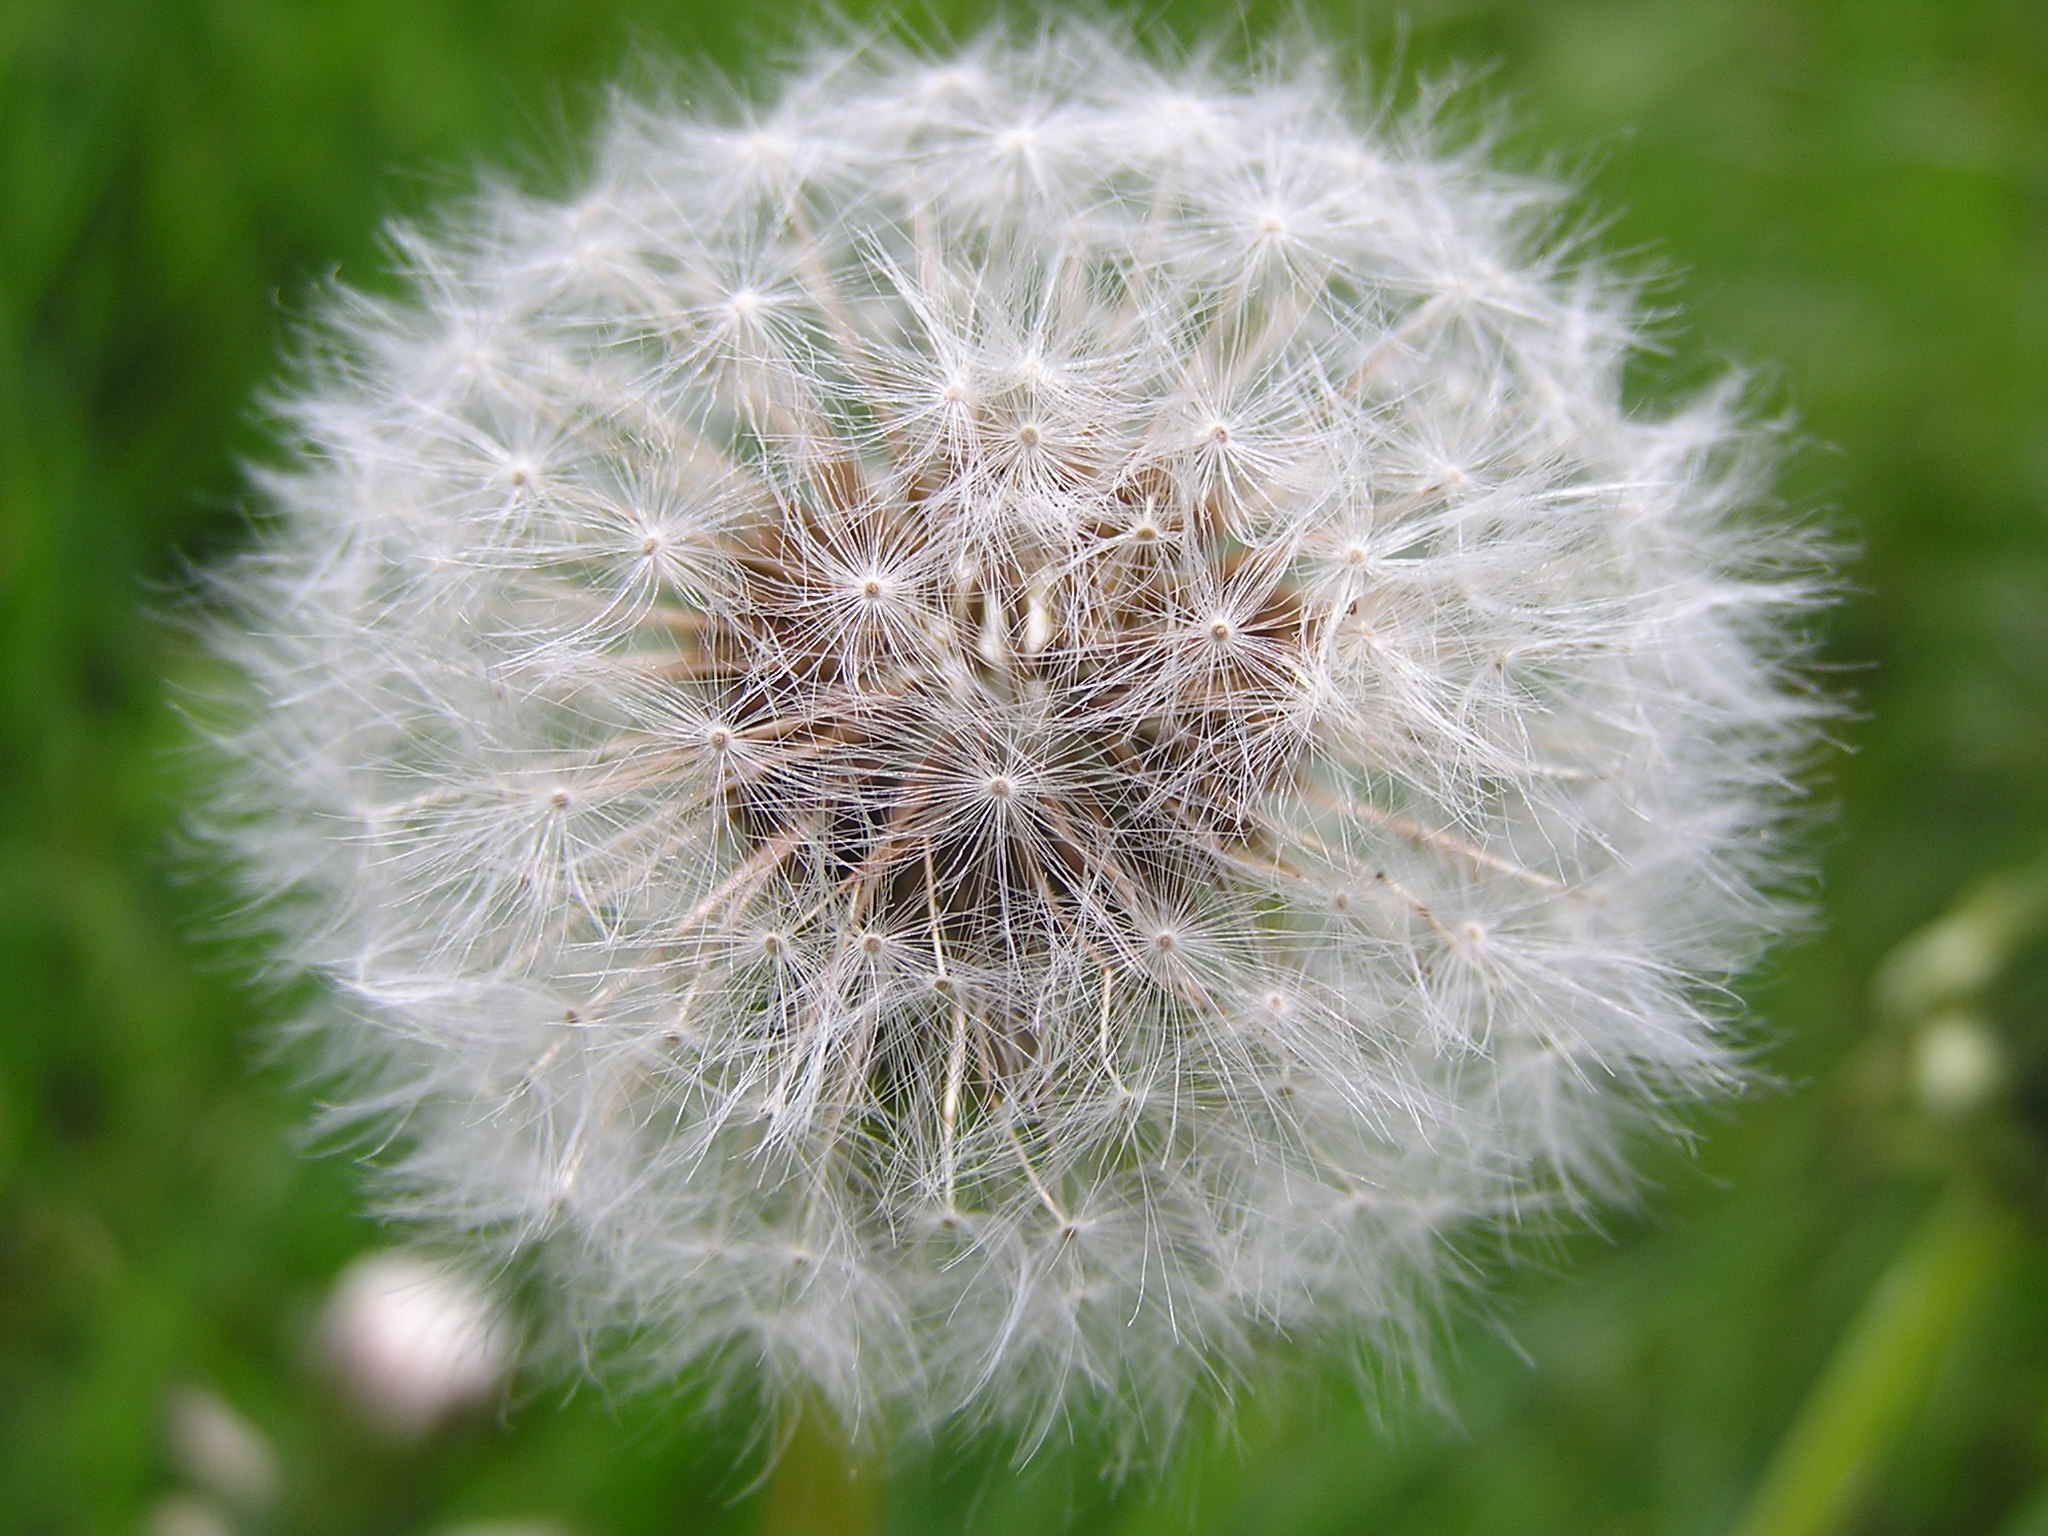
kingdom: Plantae
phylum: Tracheophyta
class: Magnoliopsida
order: Asterales
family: Asteraceae
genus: Taraxacum
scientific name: Taraxacum officinale
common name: Common dandelion
